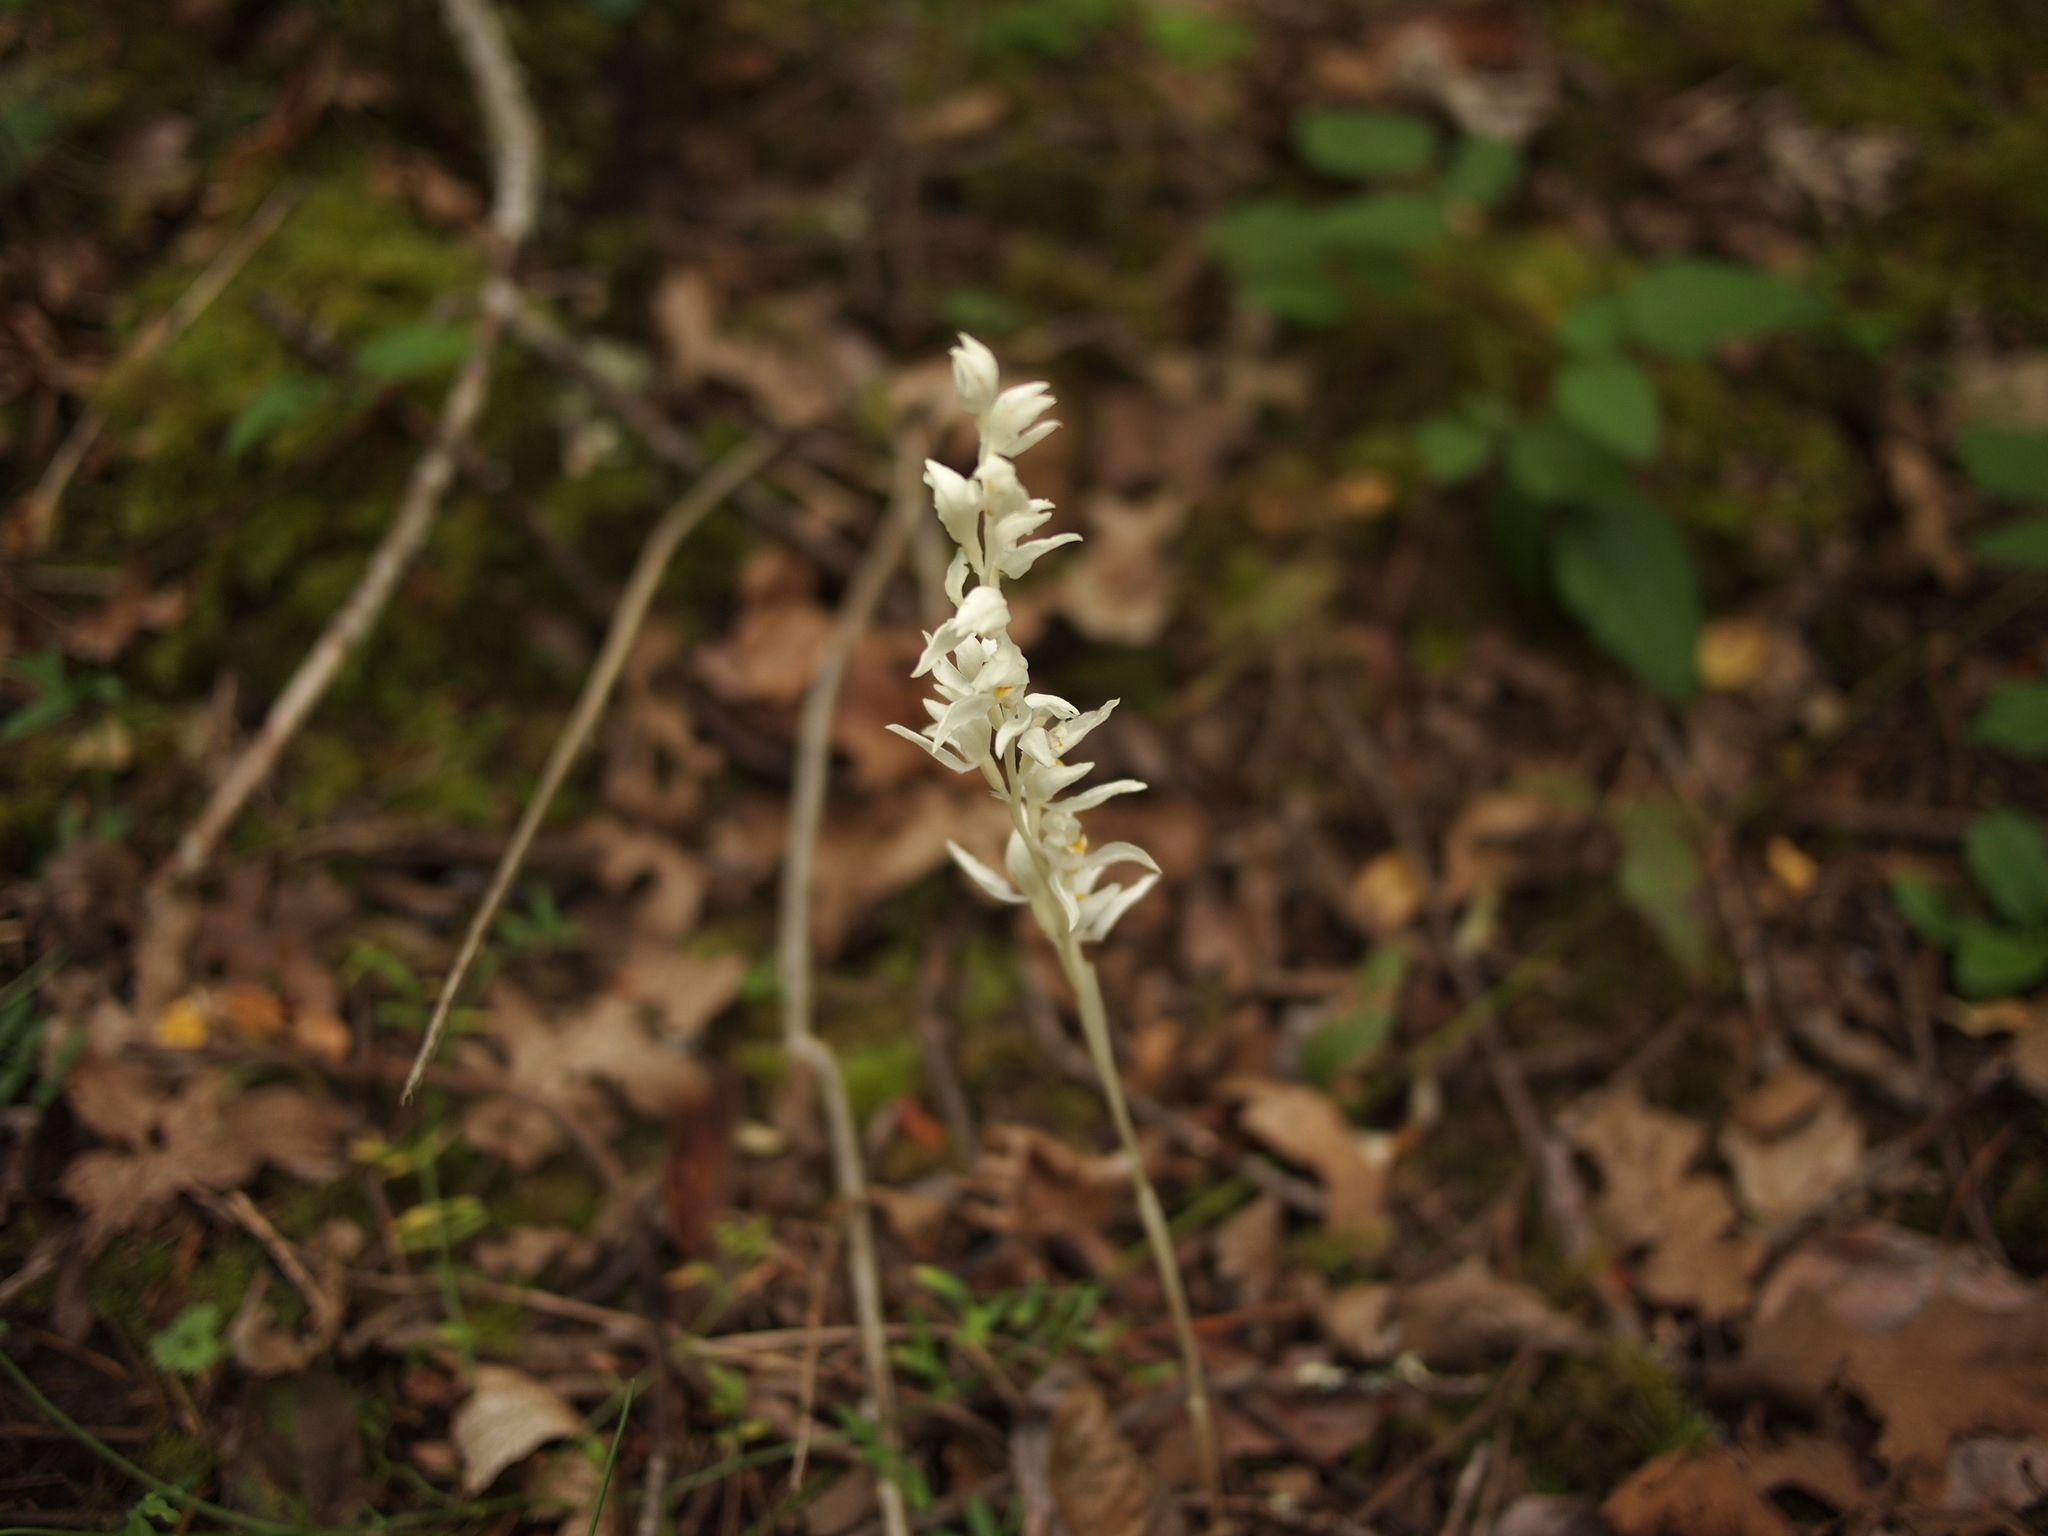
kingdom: Plantae
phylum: Tracheophyta
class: Liliopsida
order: Asparagales
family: Orchidaceae
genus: Cephalanthera
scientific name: Cephalanthera austiniae
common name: Phantom orchid
